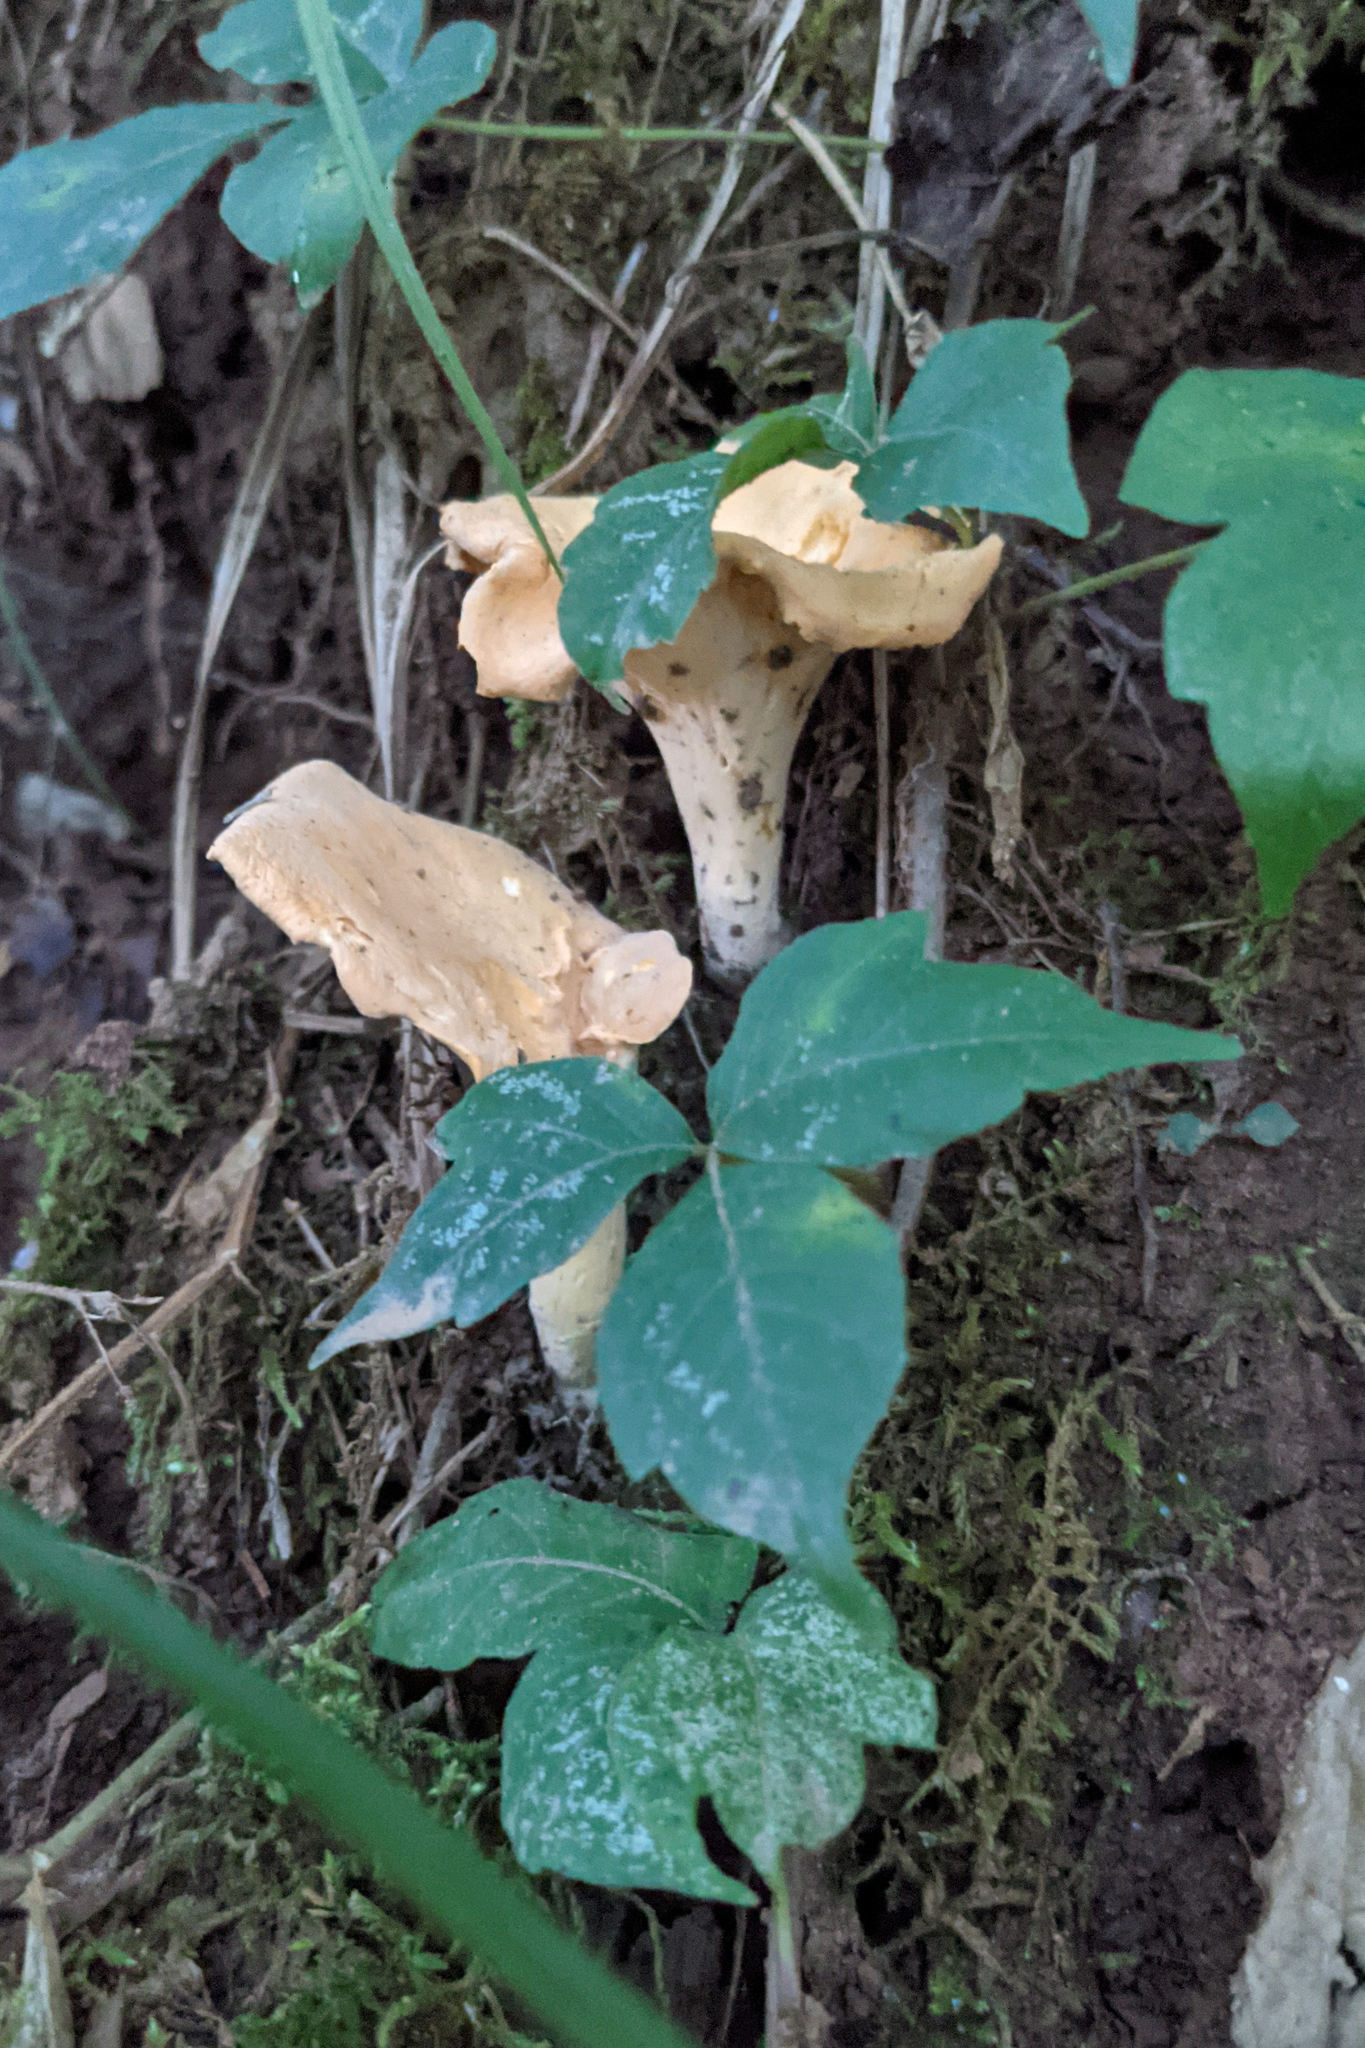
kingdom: Plantae
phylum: Tracheophyta
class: Magnoliopsida
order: Sapindales
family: Anacardiaceae
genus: Toxicodendron
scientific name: Toxicodendron radicans
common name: Poison ivy
